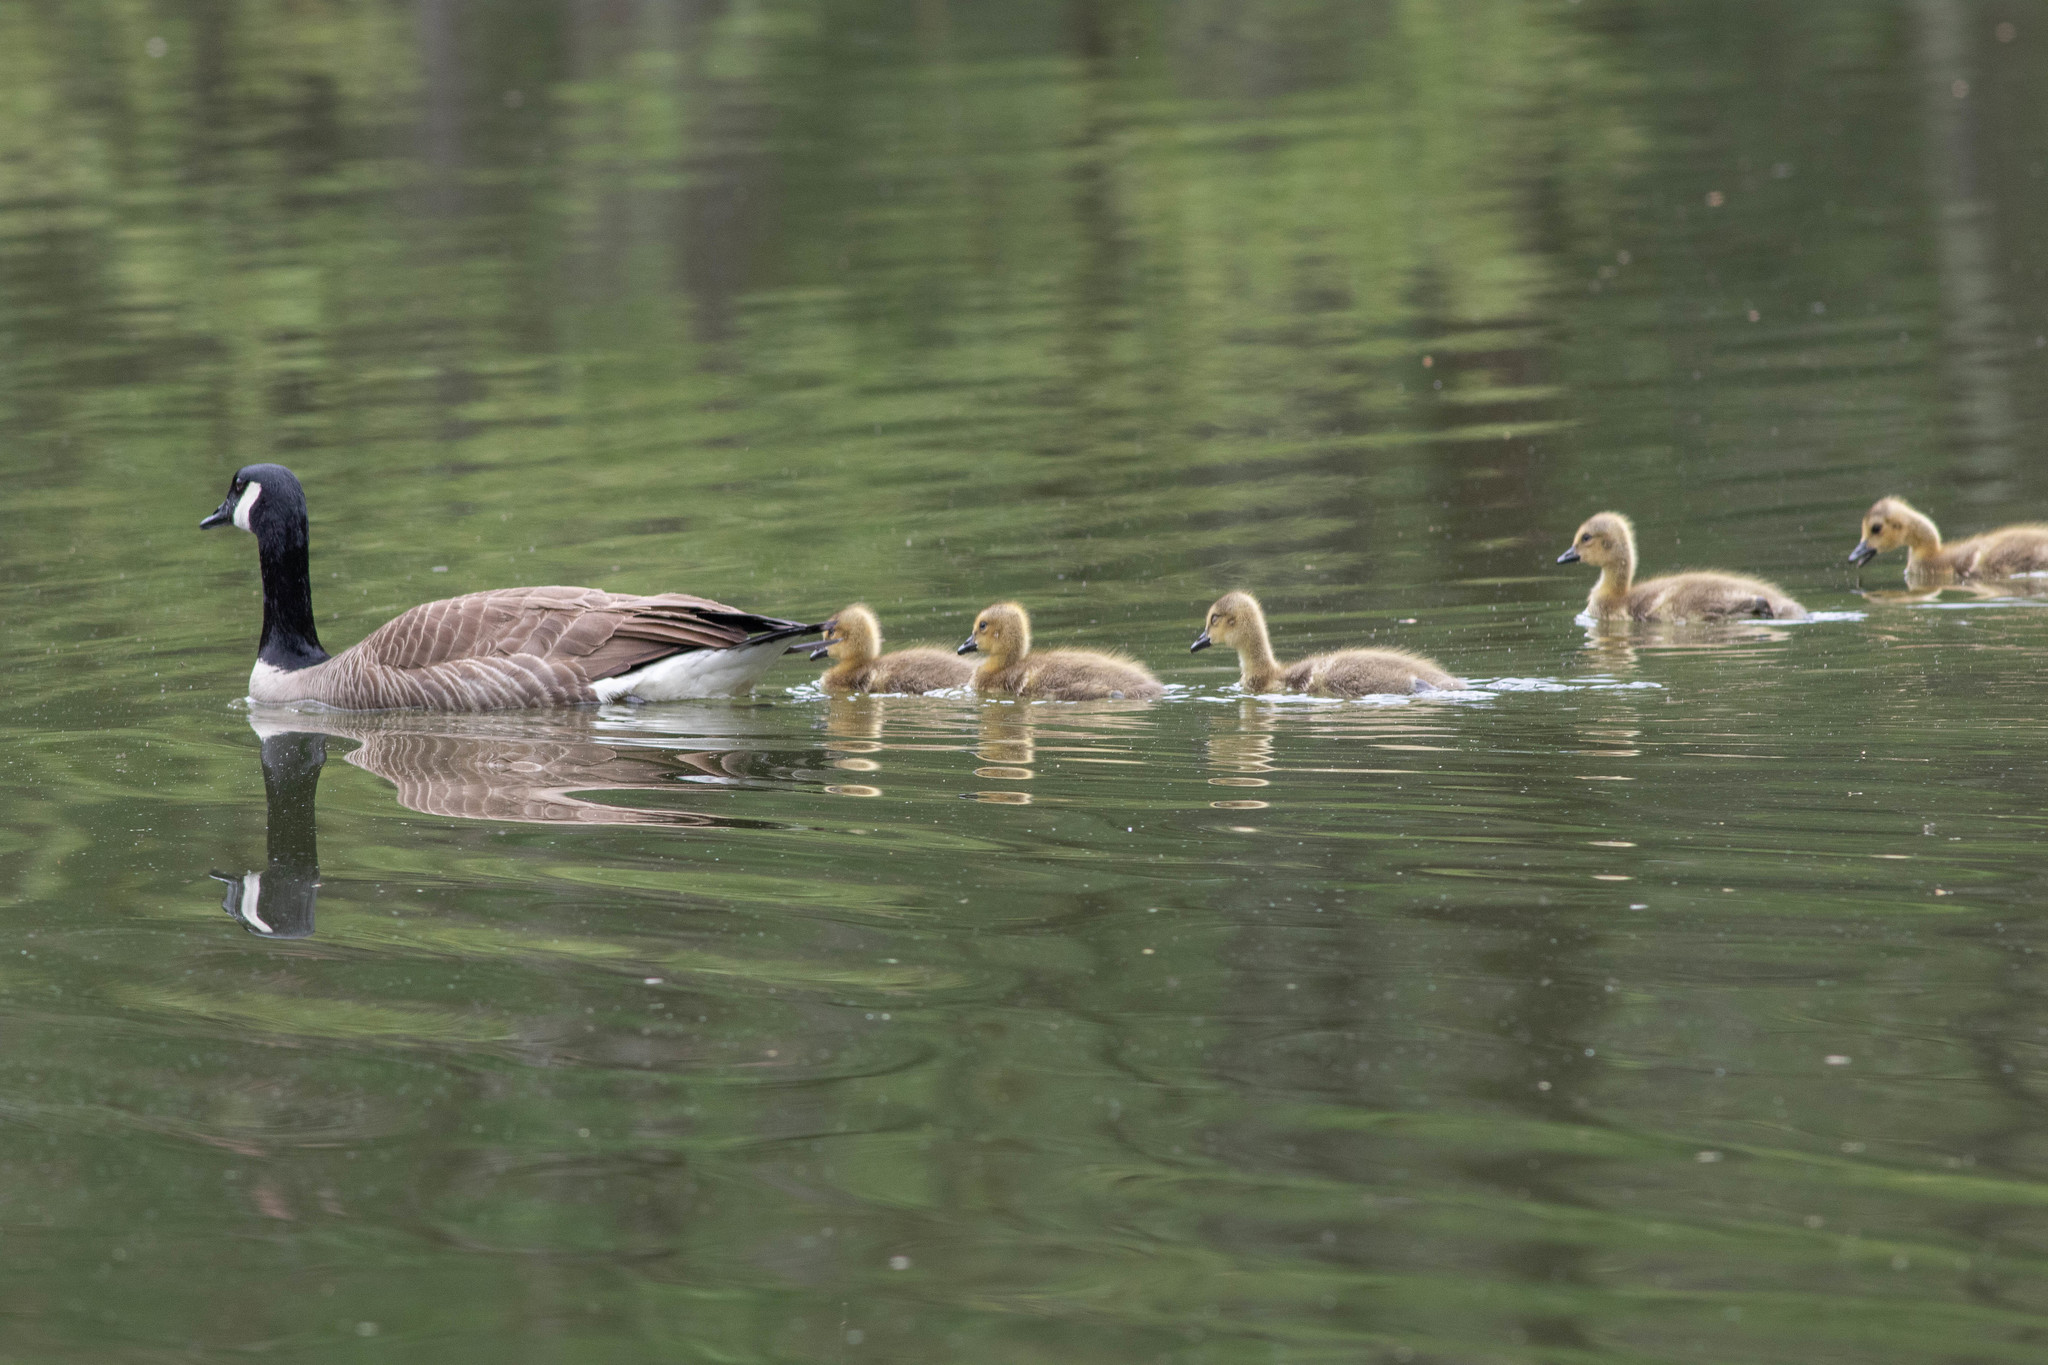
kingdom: Animalia
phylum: Chordata
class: Aves
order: Anseriformes
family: Anatidae
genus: Branta
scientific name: Branta canadensis
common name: Canada goose
